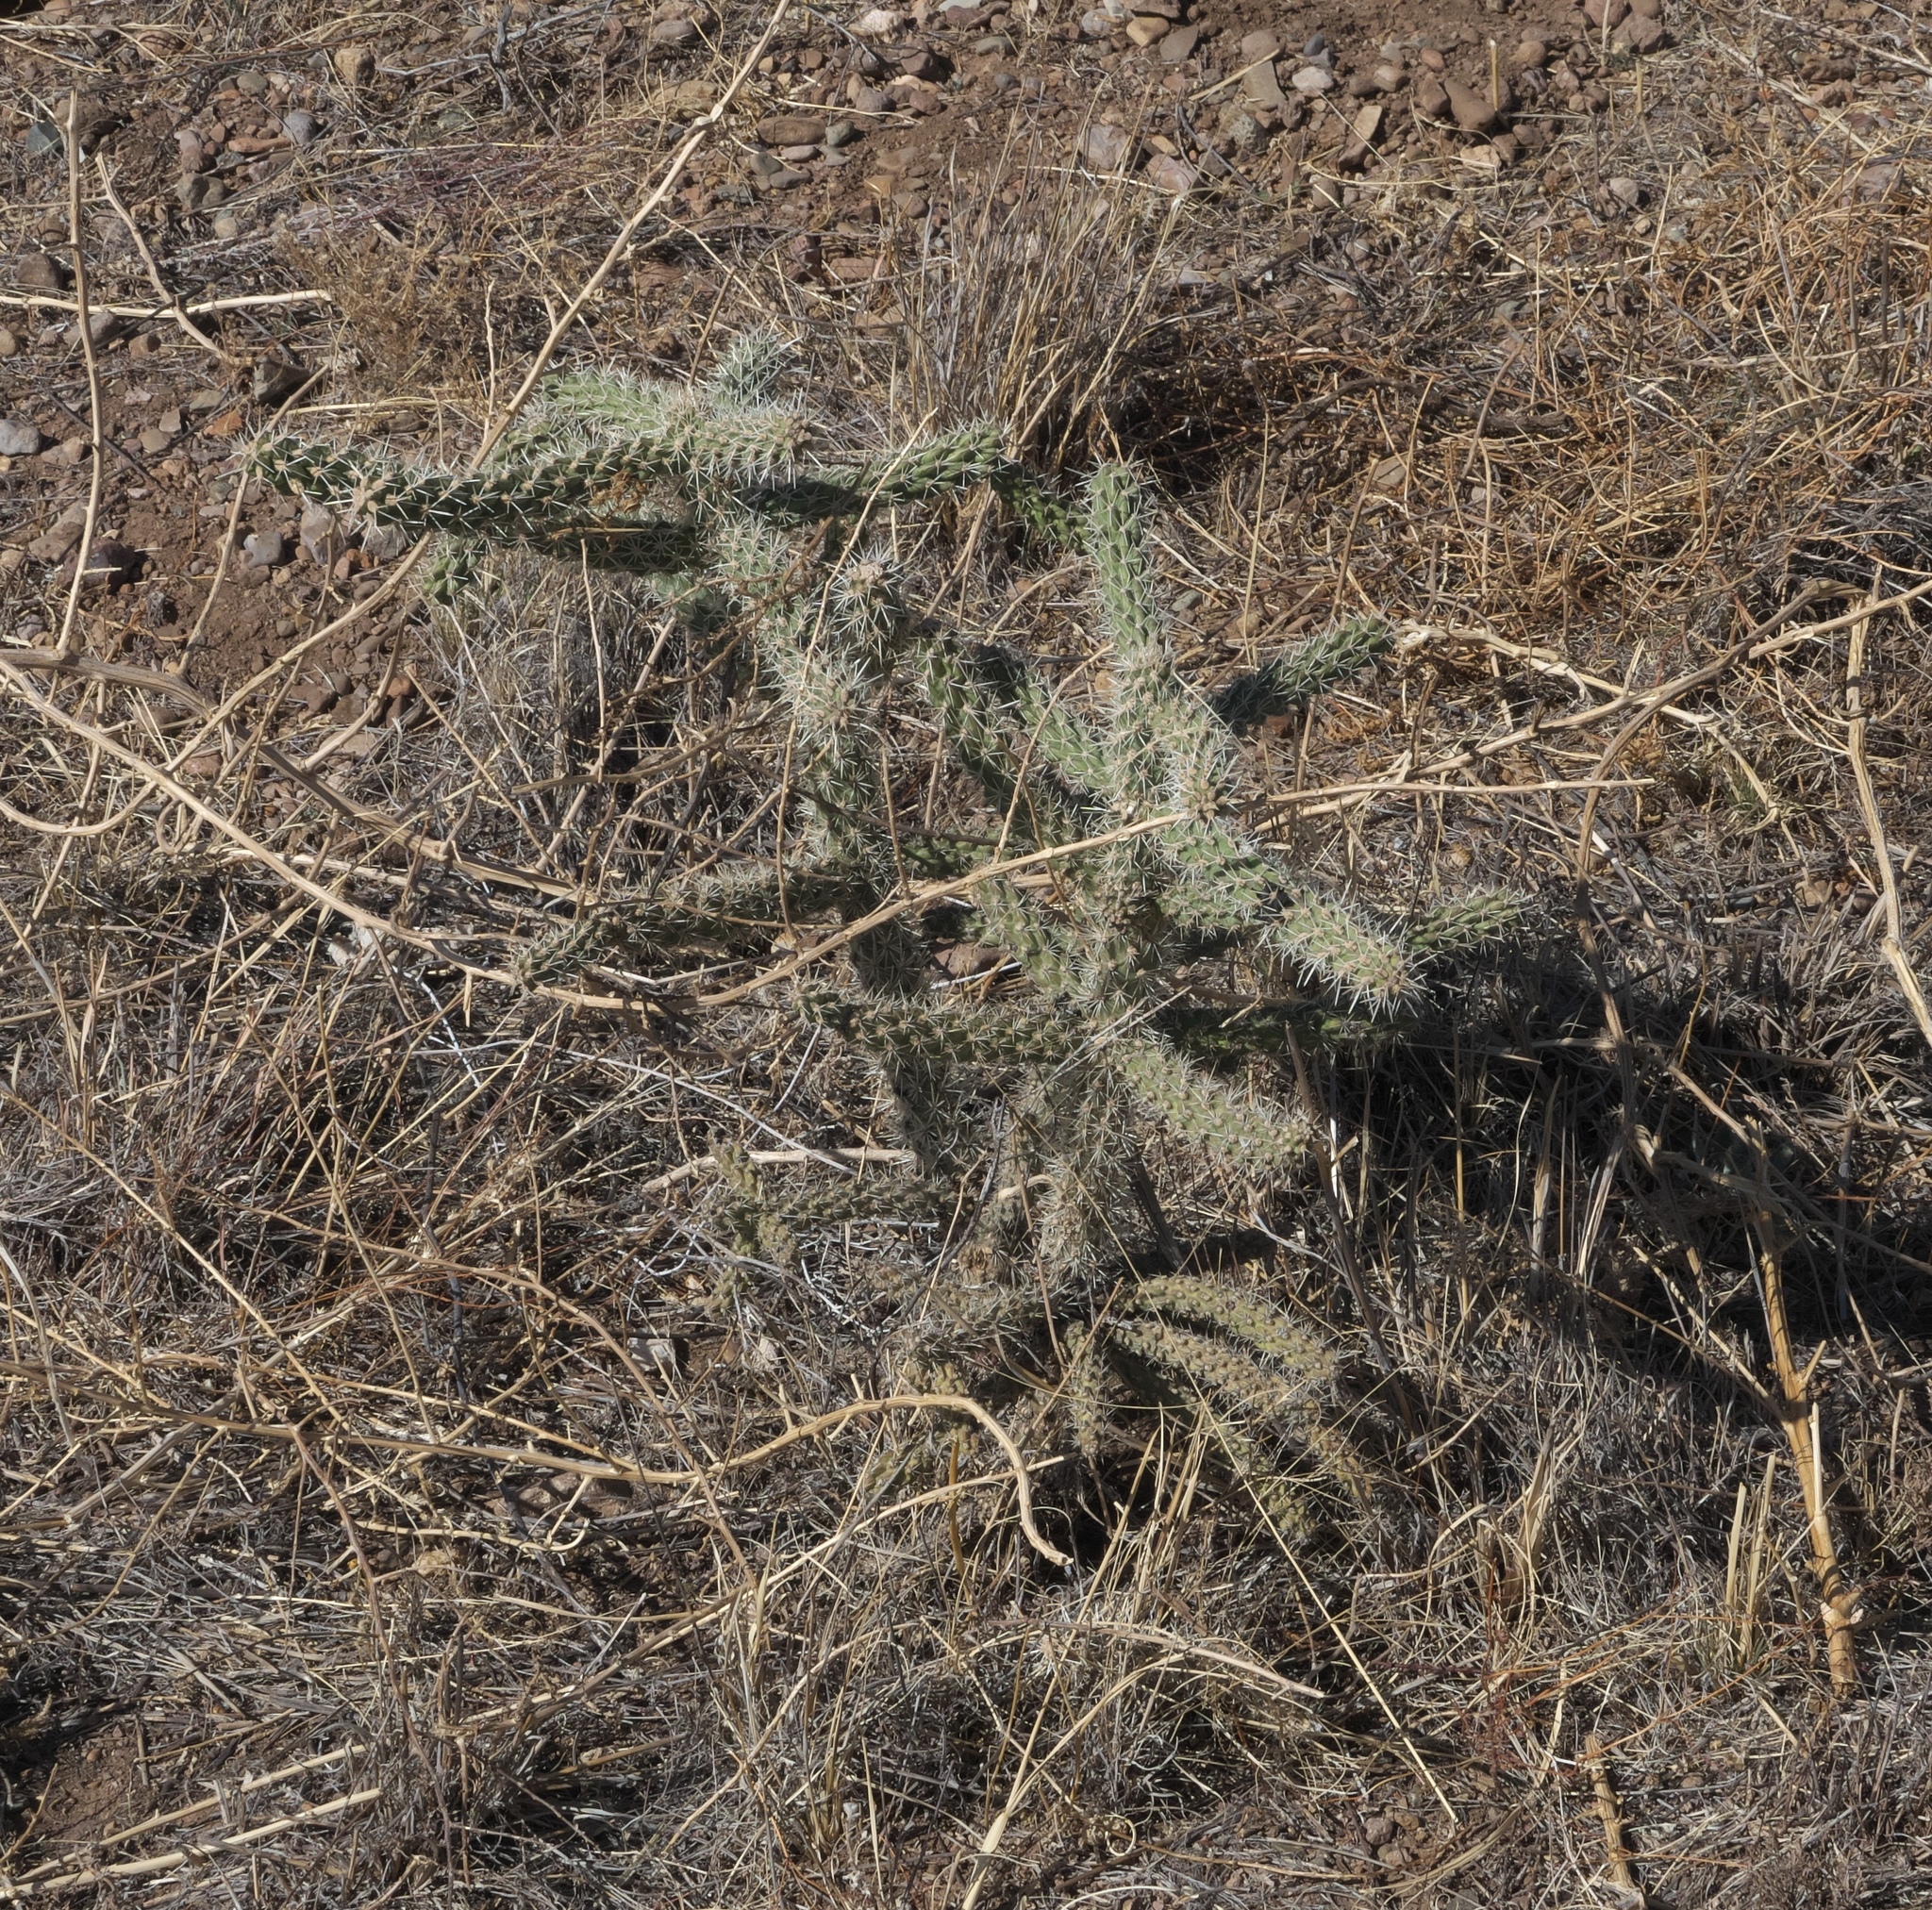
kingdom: Plantae
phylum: Tracheophyta
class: Magnoliopsida
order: Caryophyllales
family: Cactaceae
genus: Cylindropuntia
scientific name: Cylindropuntia imbricata
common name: Candelabrum cactus
